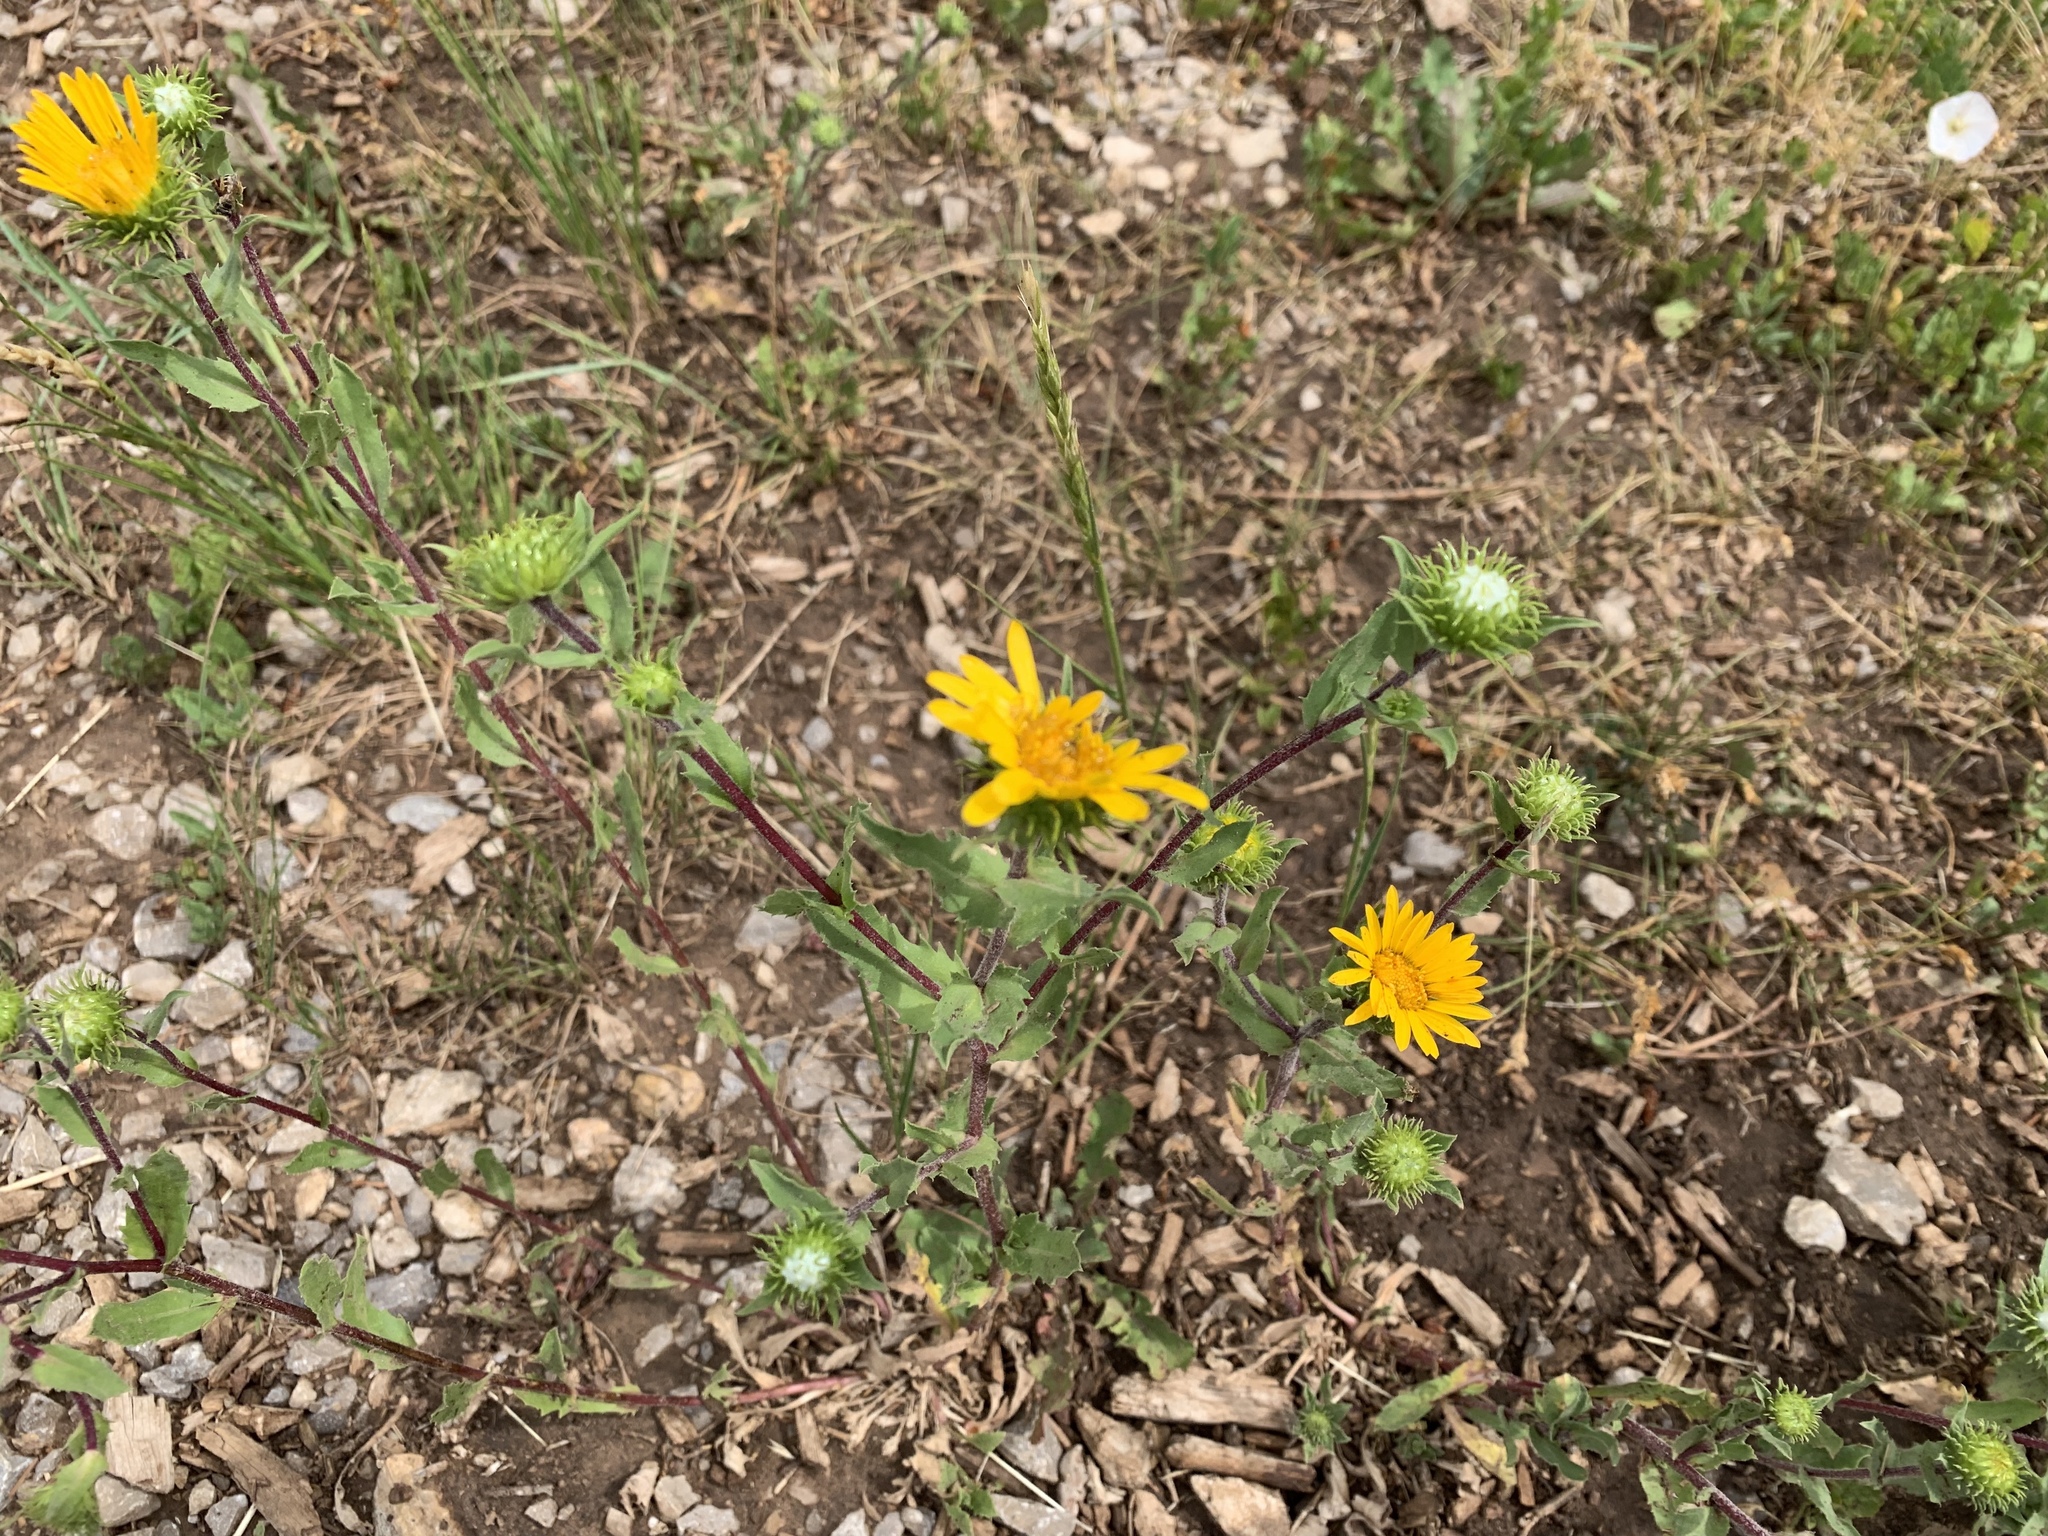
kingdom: Plantae
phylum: Tracheophyta
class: Magnoliopsida
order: Asterales
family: Asteraceae
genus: Grindelia
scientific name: Grindelia scabra
